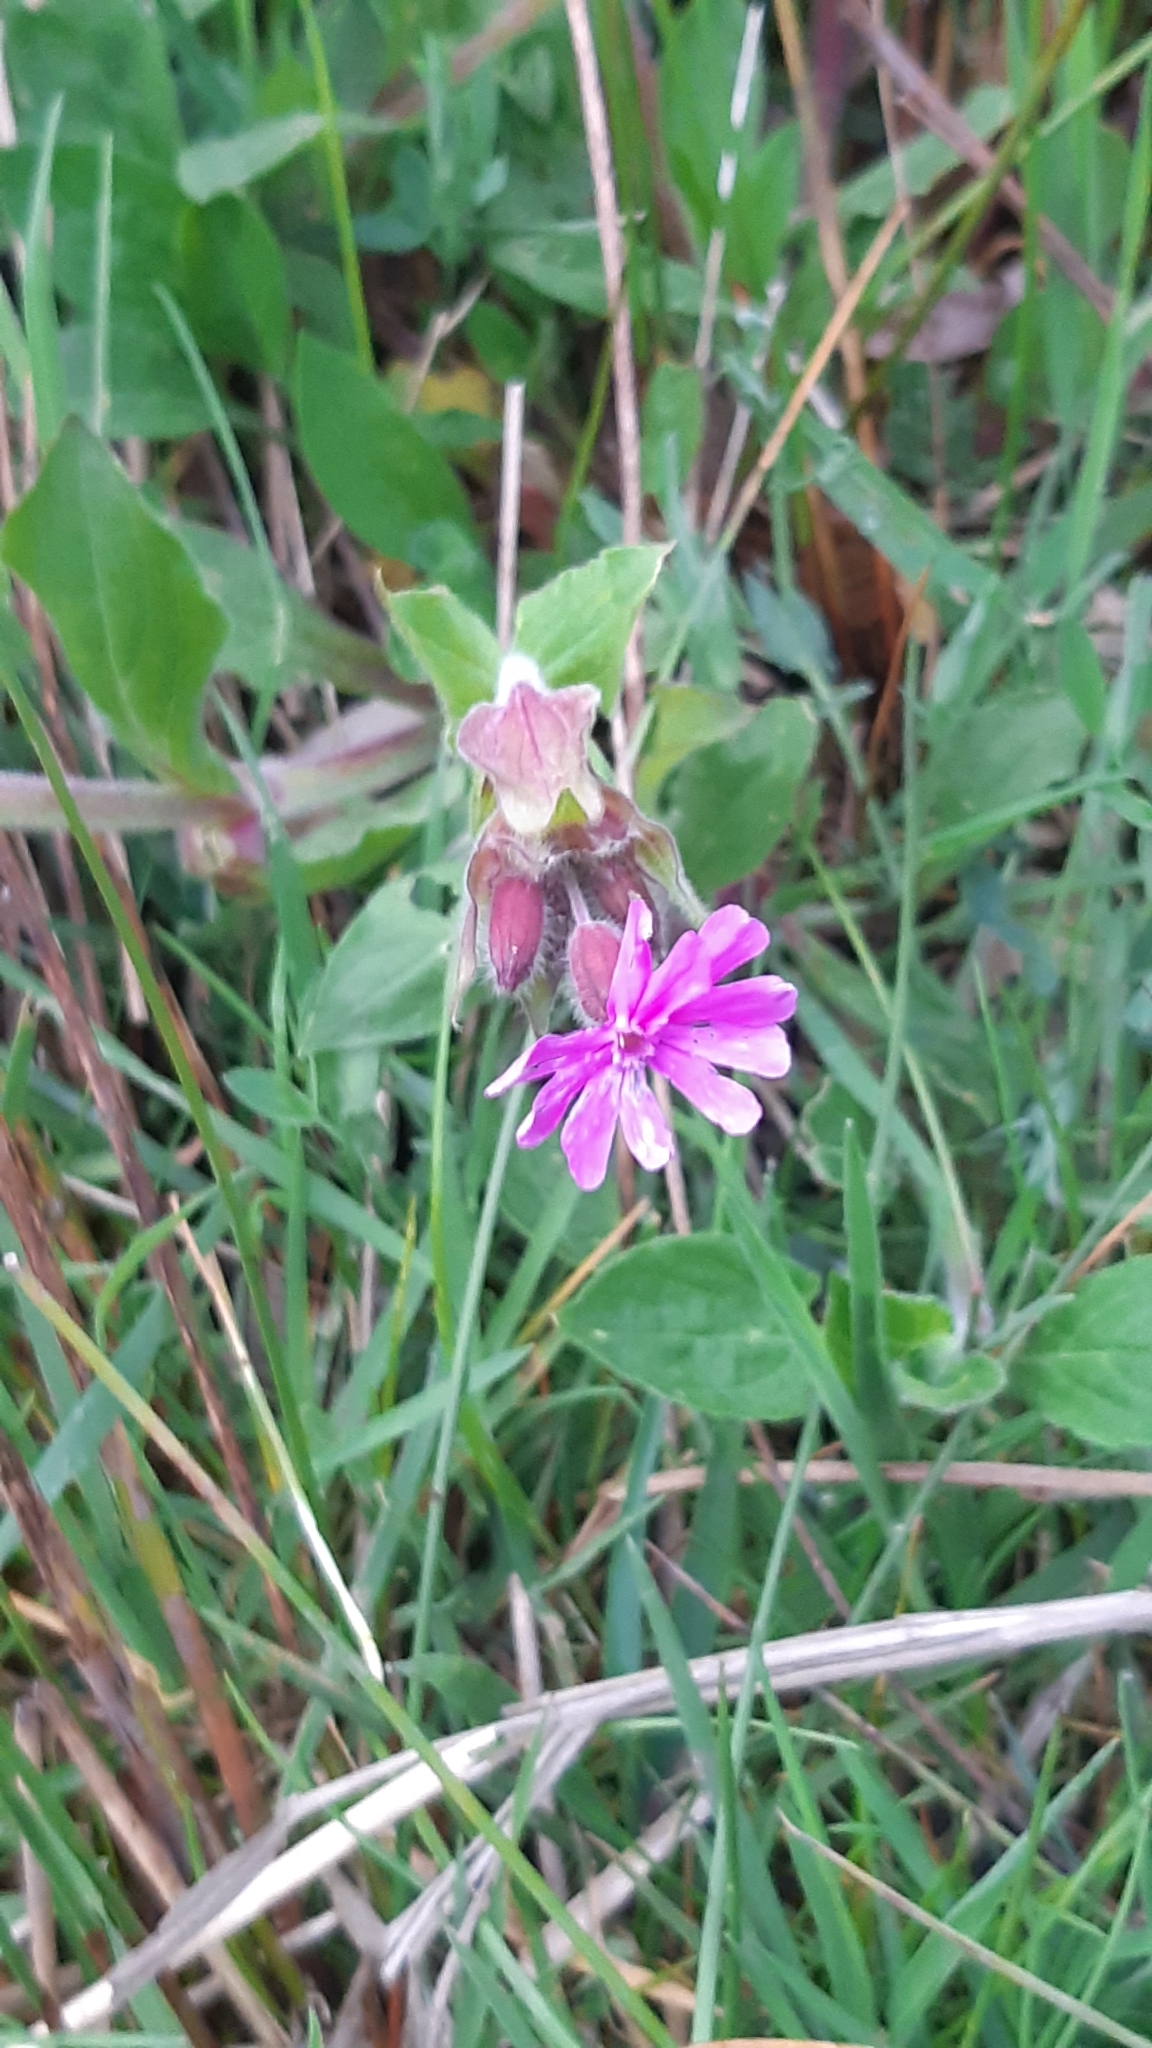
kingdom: Plantae
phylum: Tracheophyta
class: Magnoliopsida
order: Caryophyllales
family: Caryophyllaceae
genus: Silene
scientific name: Silene dioica
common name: Red campion
